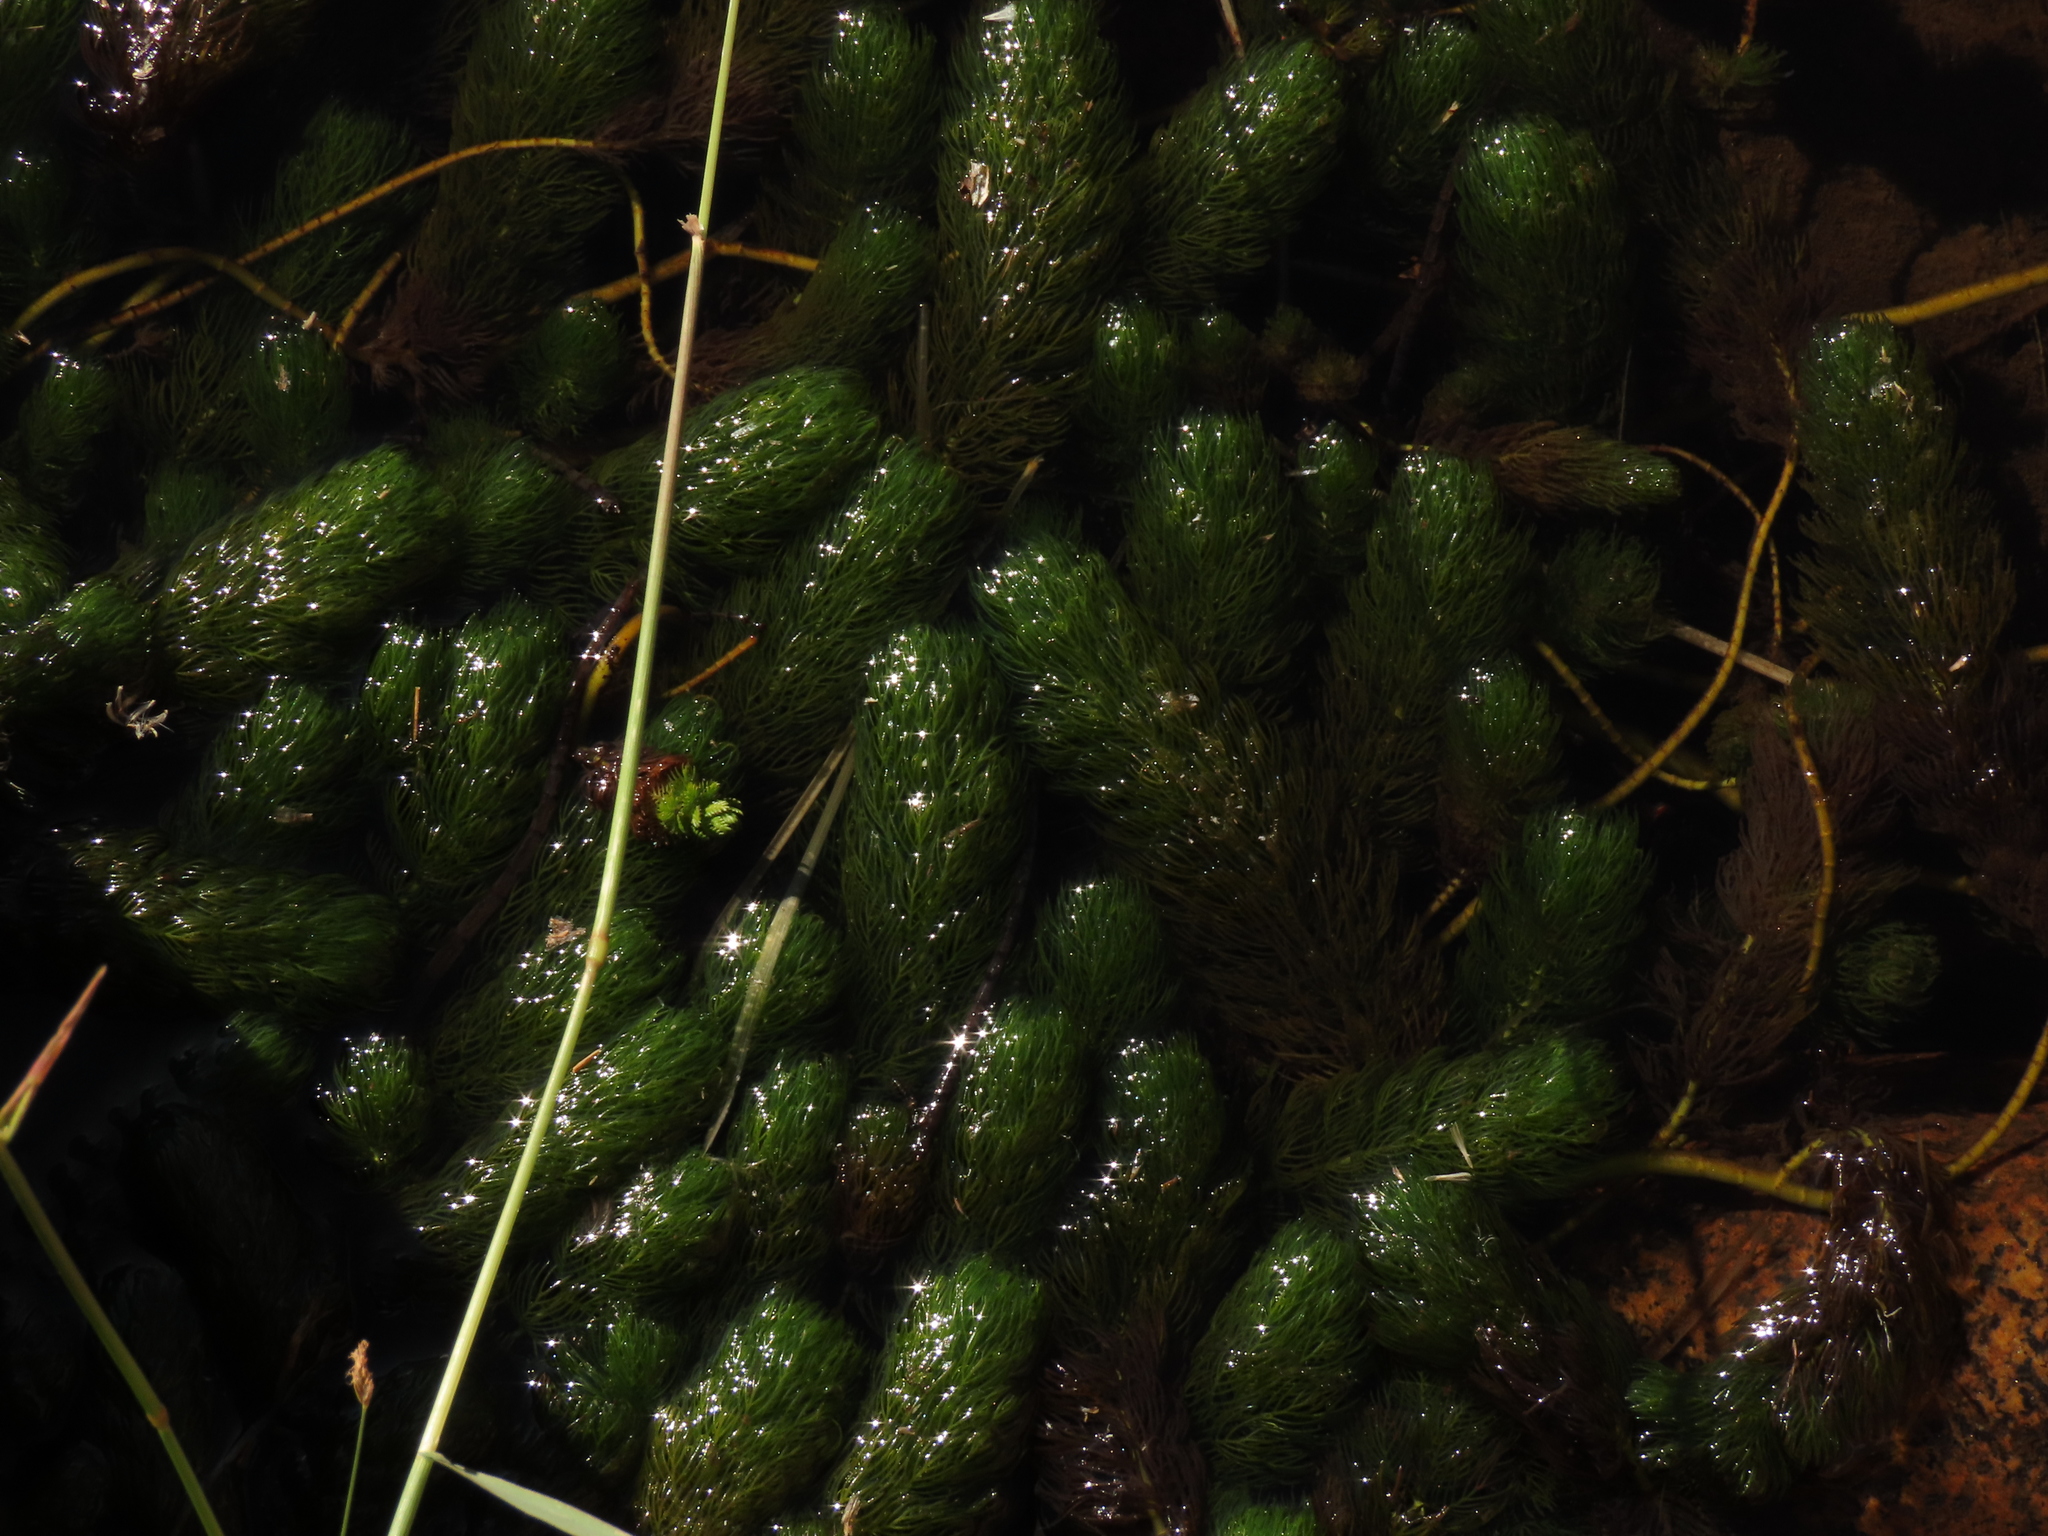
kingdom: Plantae
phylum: Tracheophyta
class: Magnoliopsida
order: Saxifragales
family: Haloragaceae
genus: Myriophyllum
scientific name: Myriophyllum quitense
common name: Andean water milfoil
